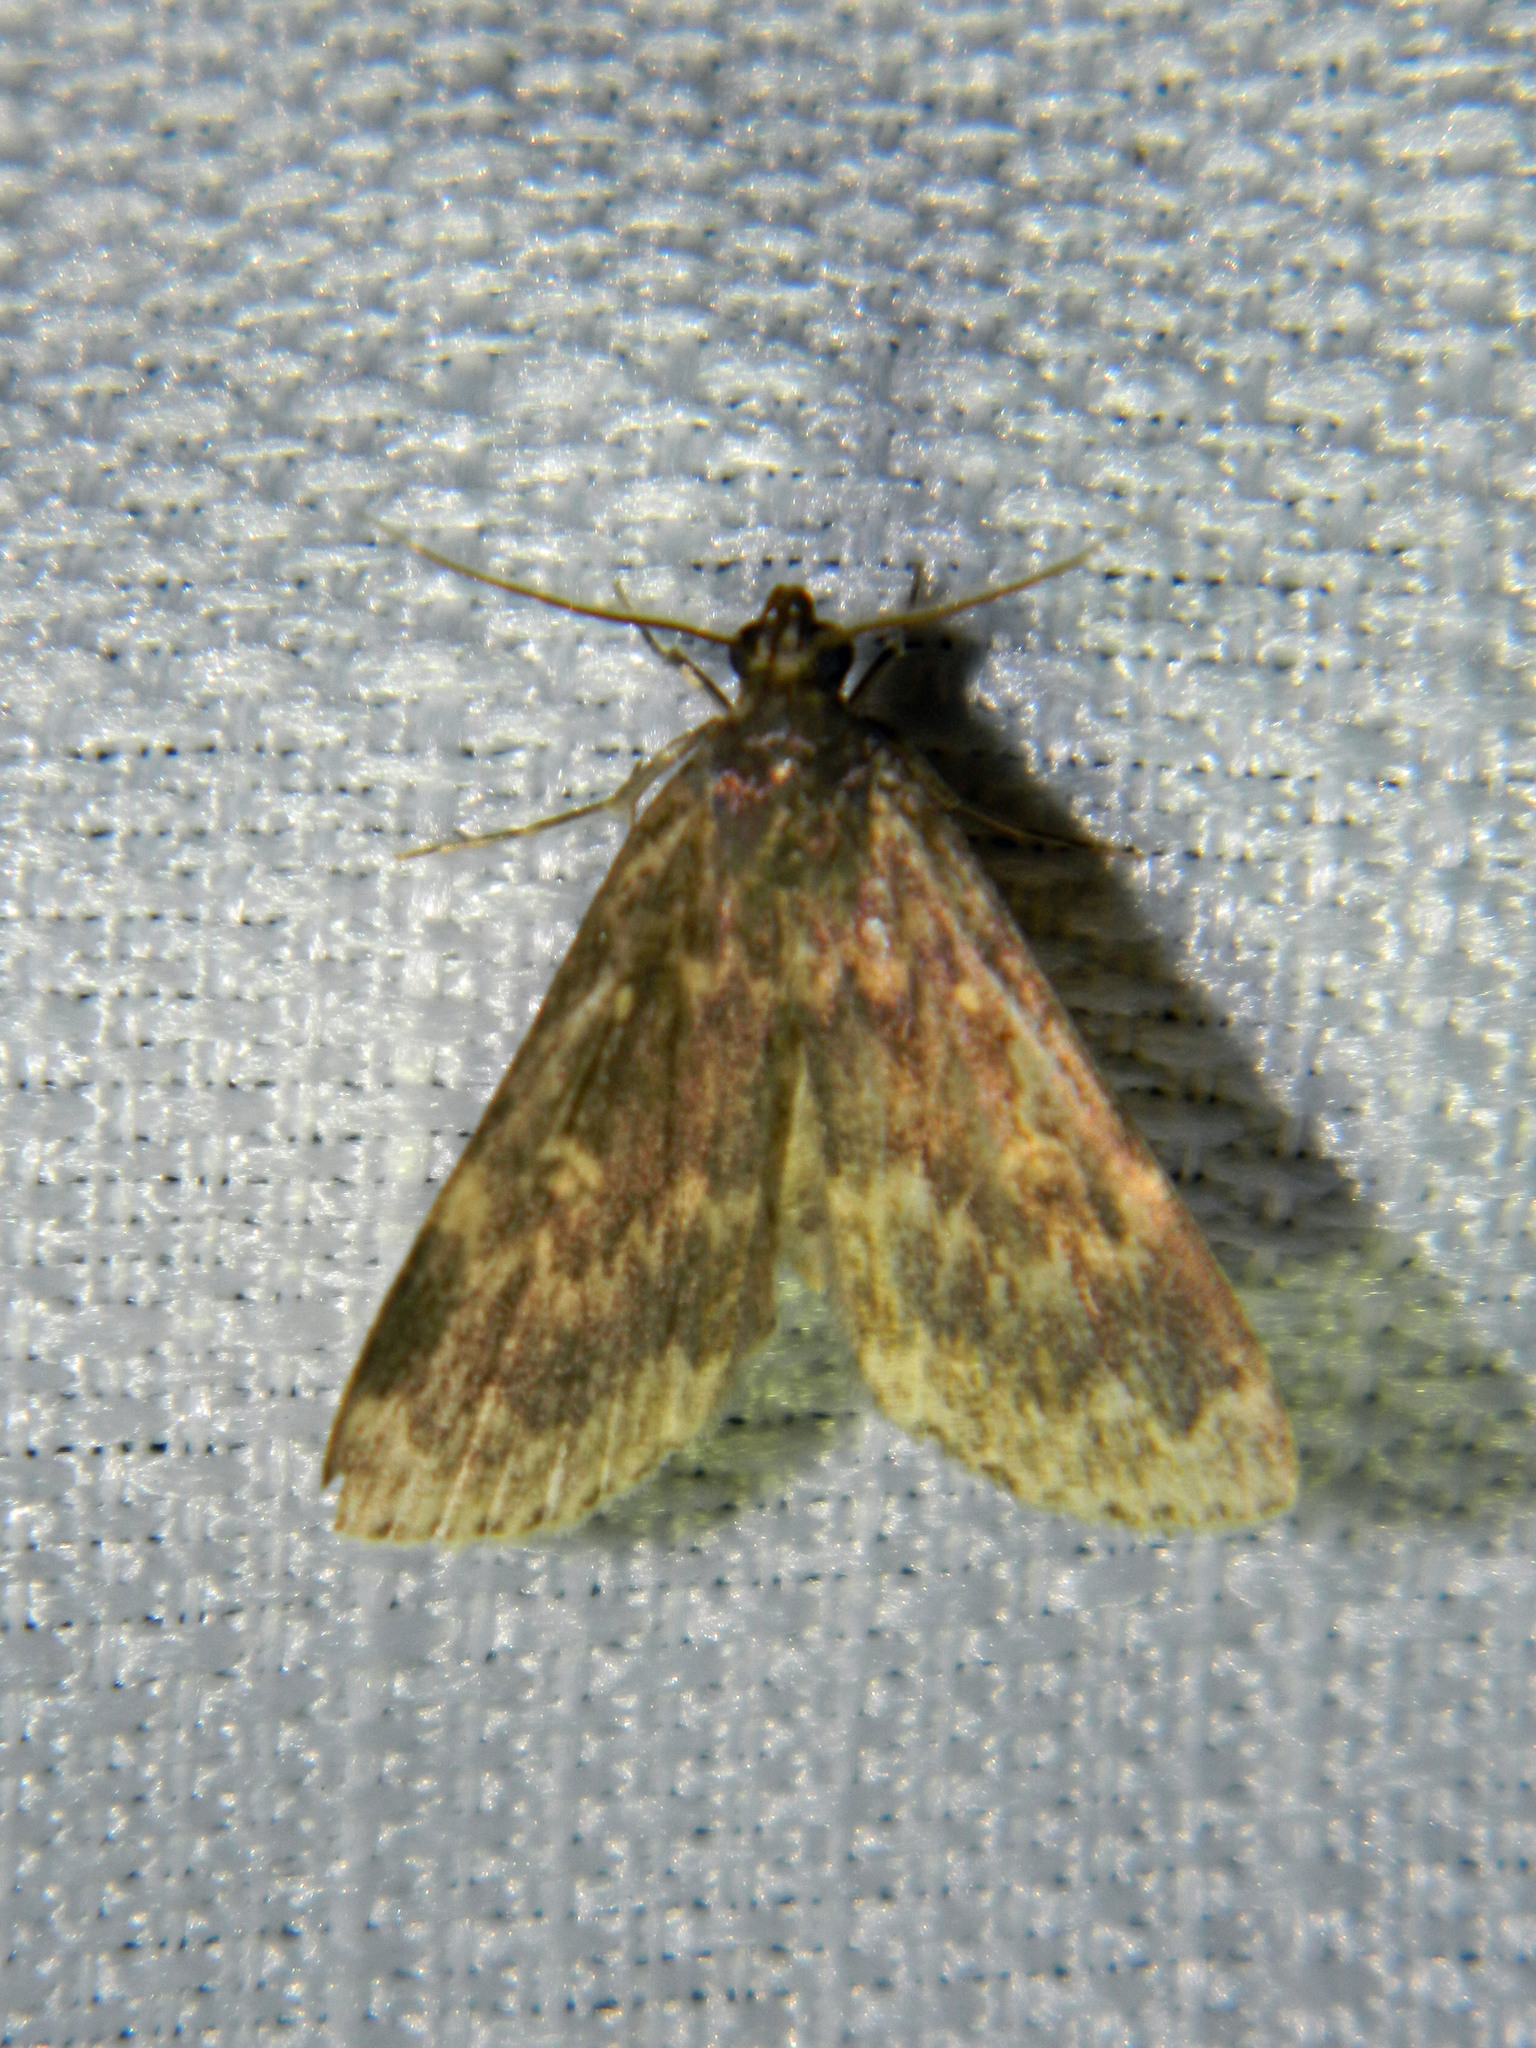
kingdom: Animalia
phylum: Arthropoda
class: Insecta
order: Lepidoptera
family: Erebidae
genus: Idia
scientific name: Idia lubricalis
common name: Twin-striped tabby
